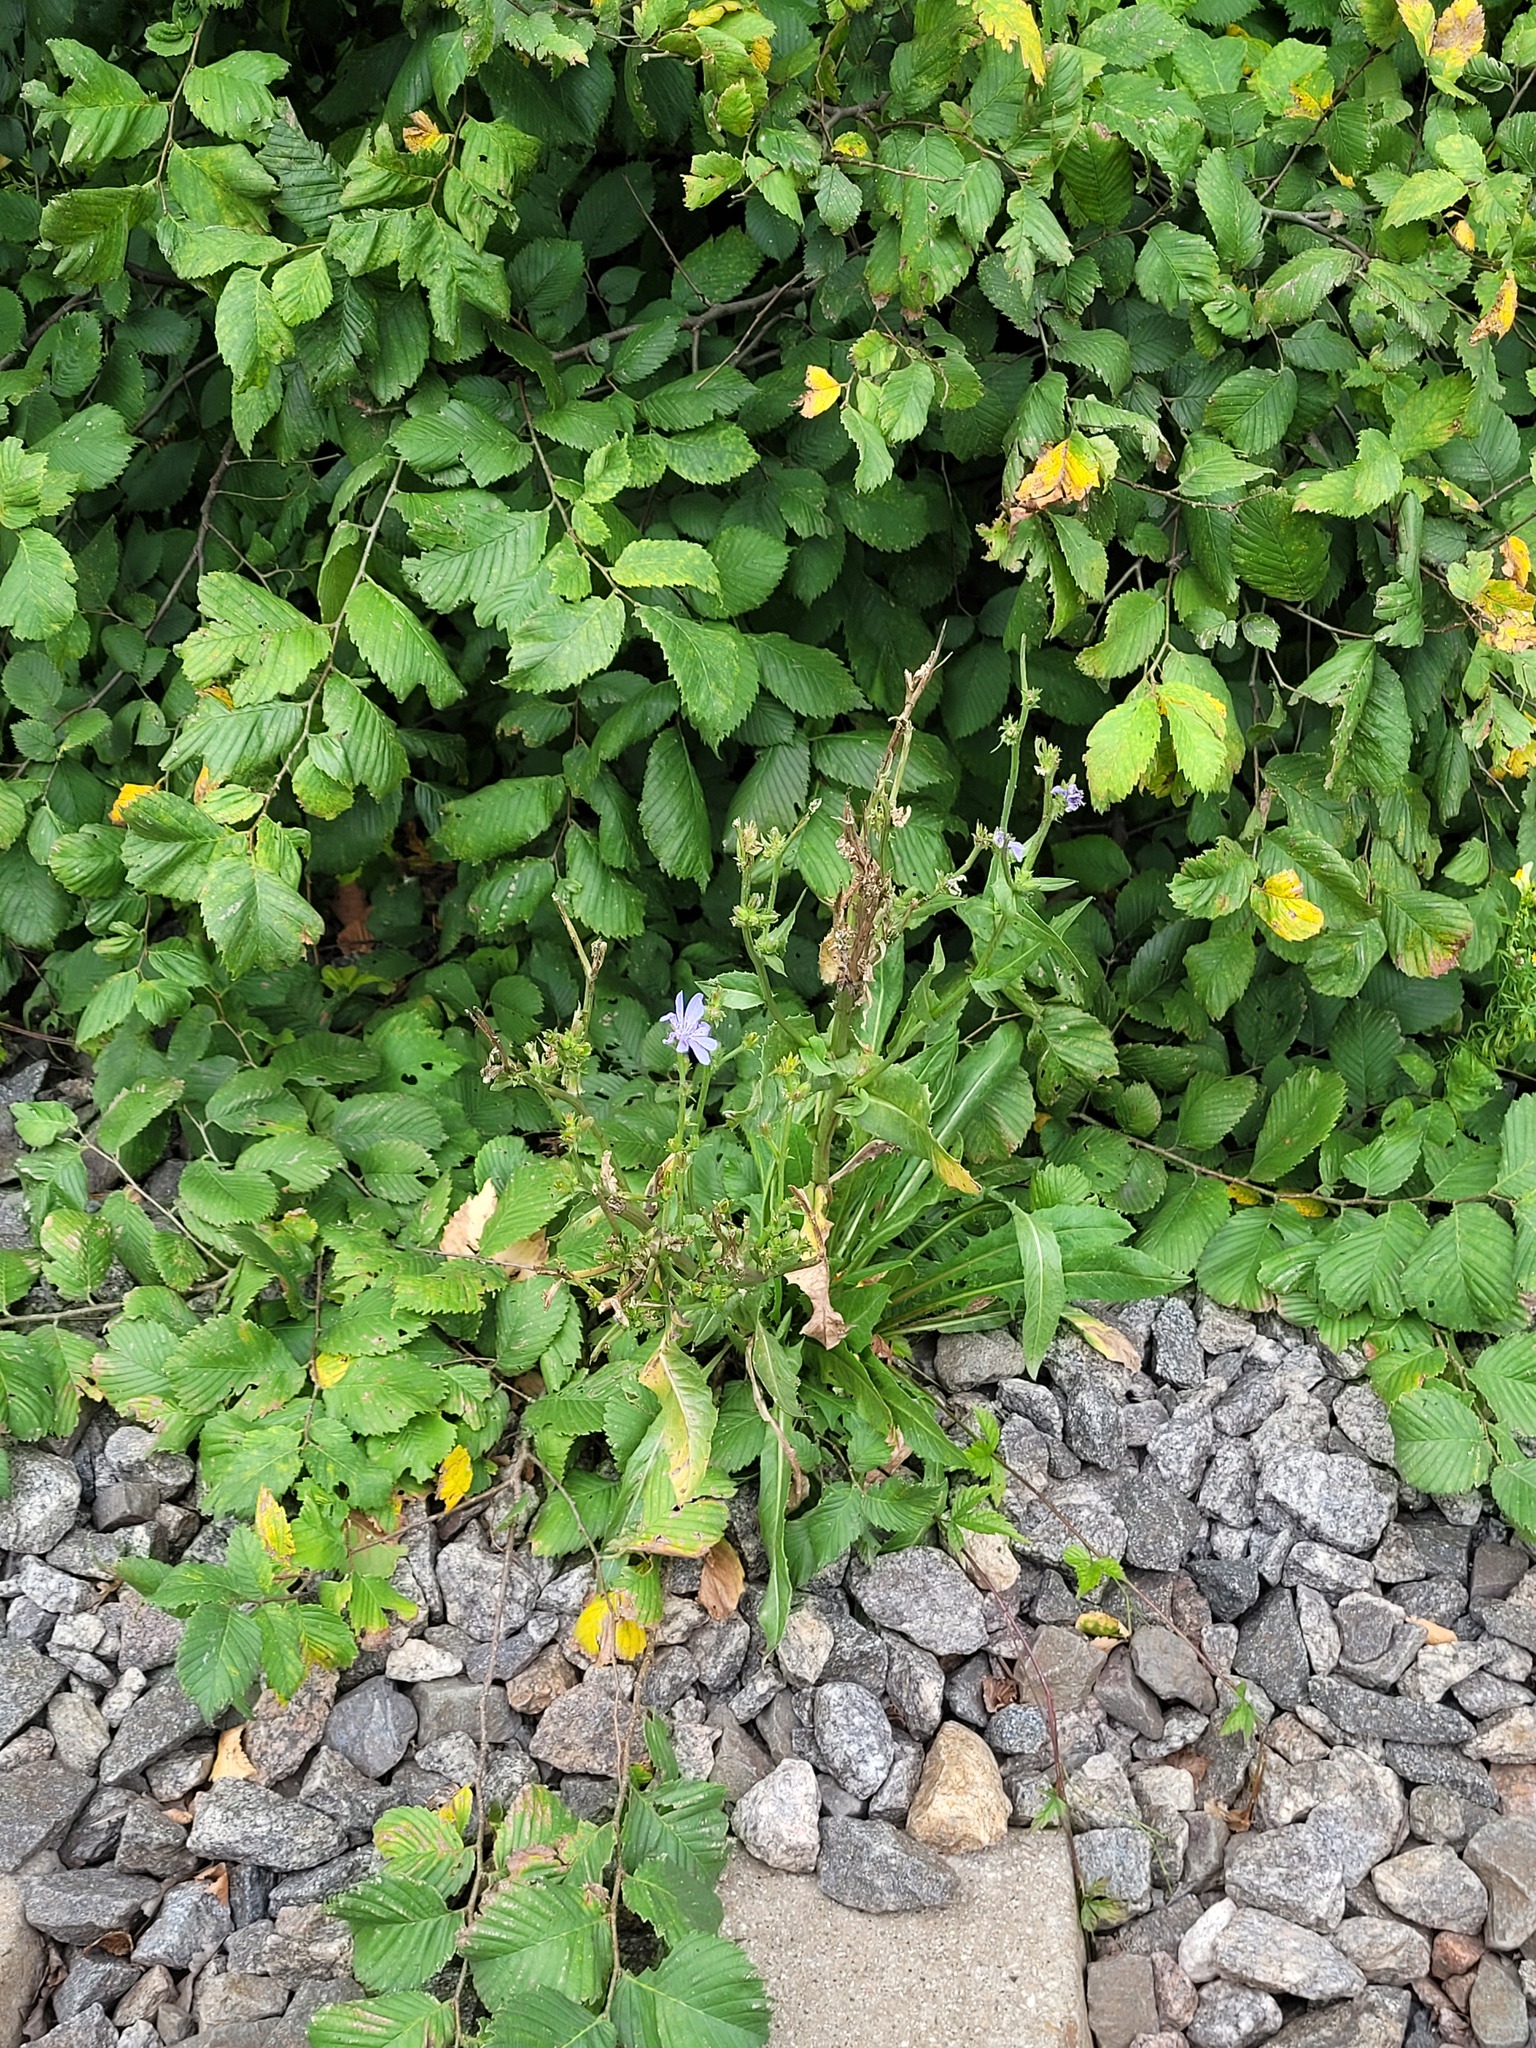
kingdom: Plantae
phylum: Tracheophyta
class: Magnoliopsida
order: Asterales
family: Asteraceae
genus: Cichorium
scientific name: Cichorium intybus
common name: Chicory
